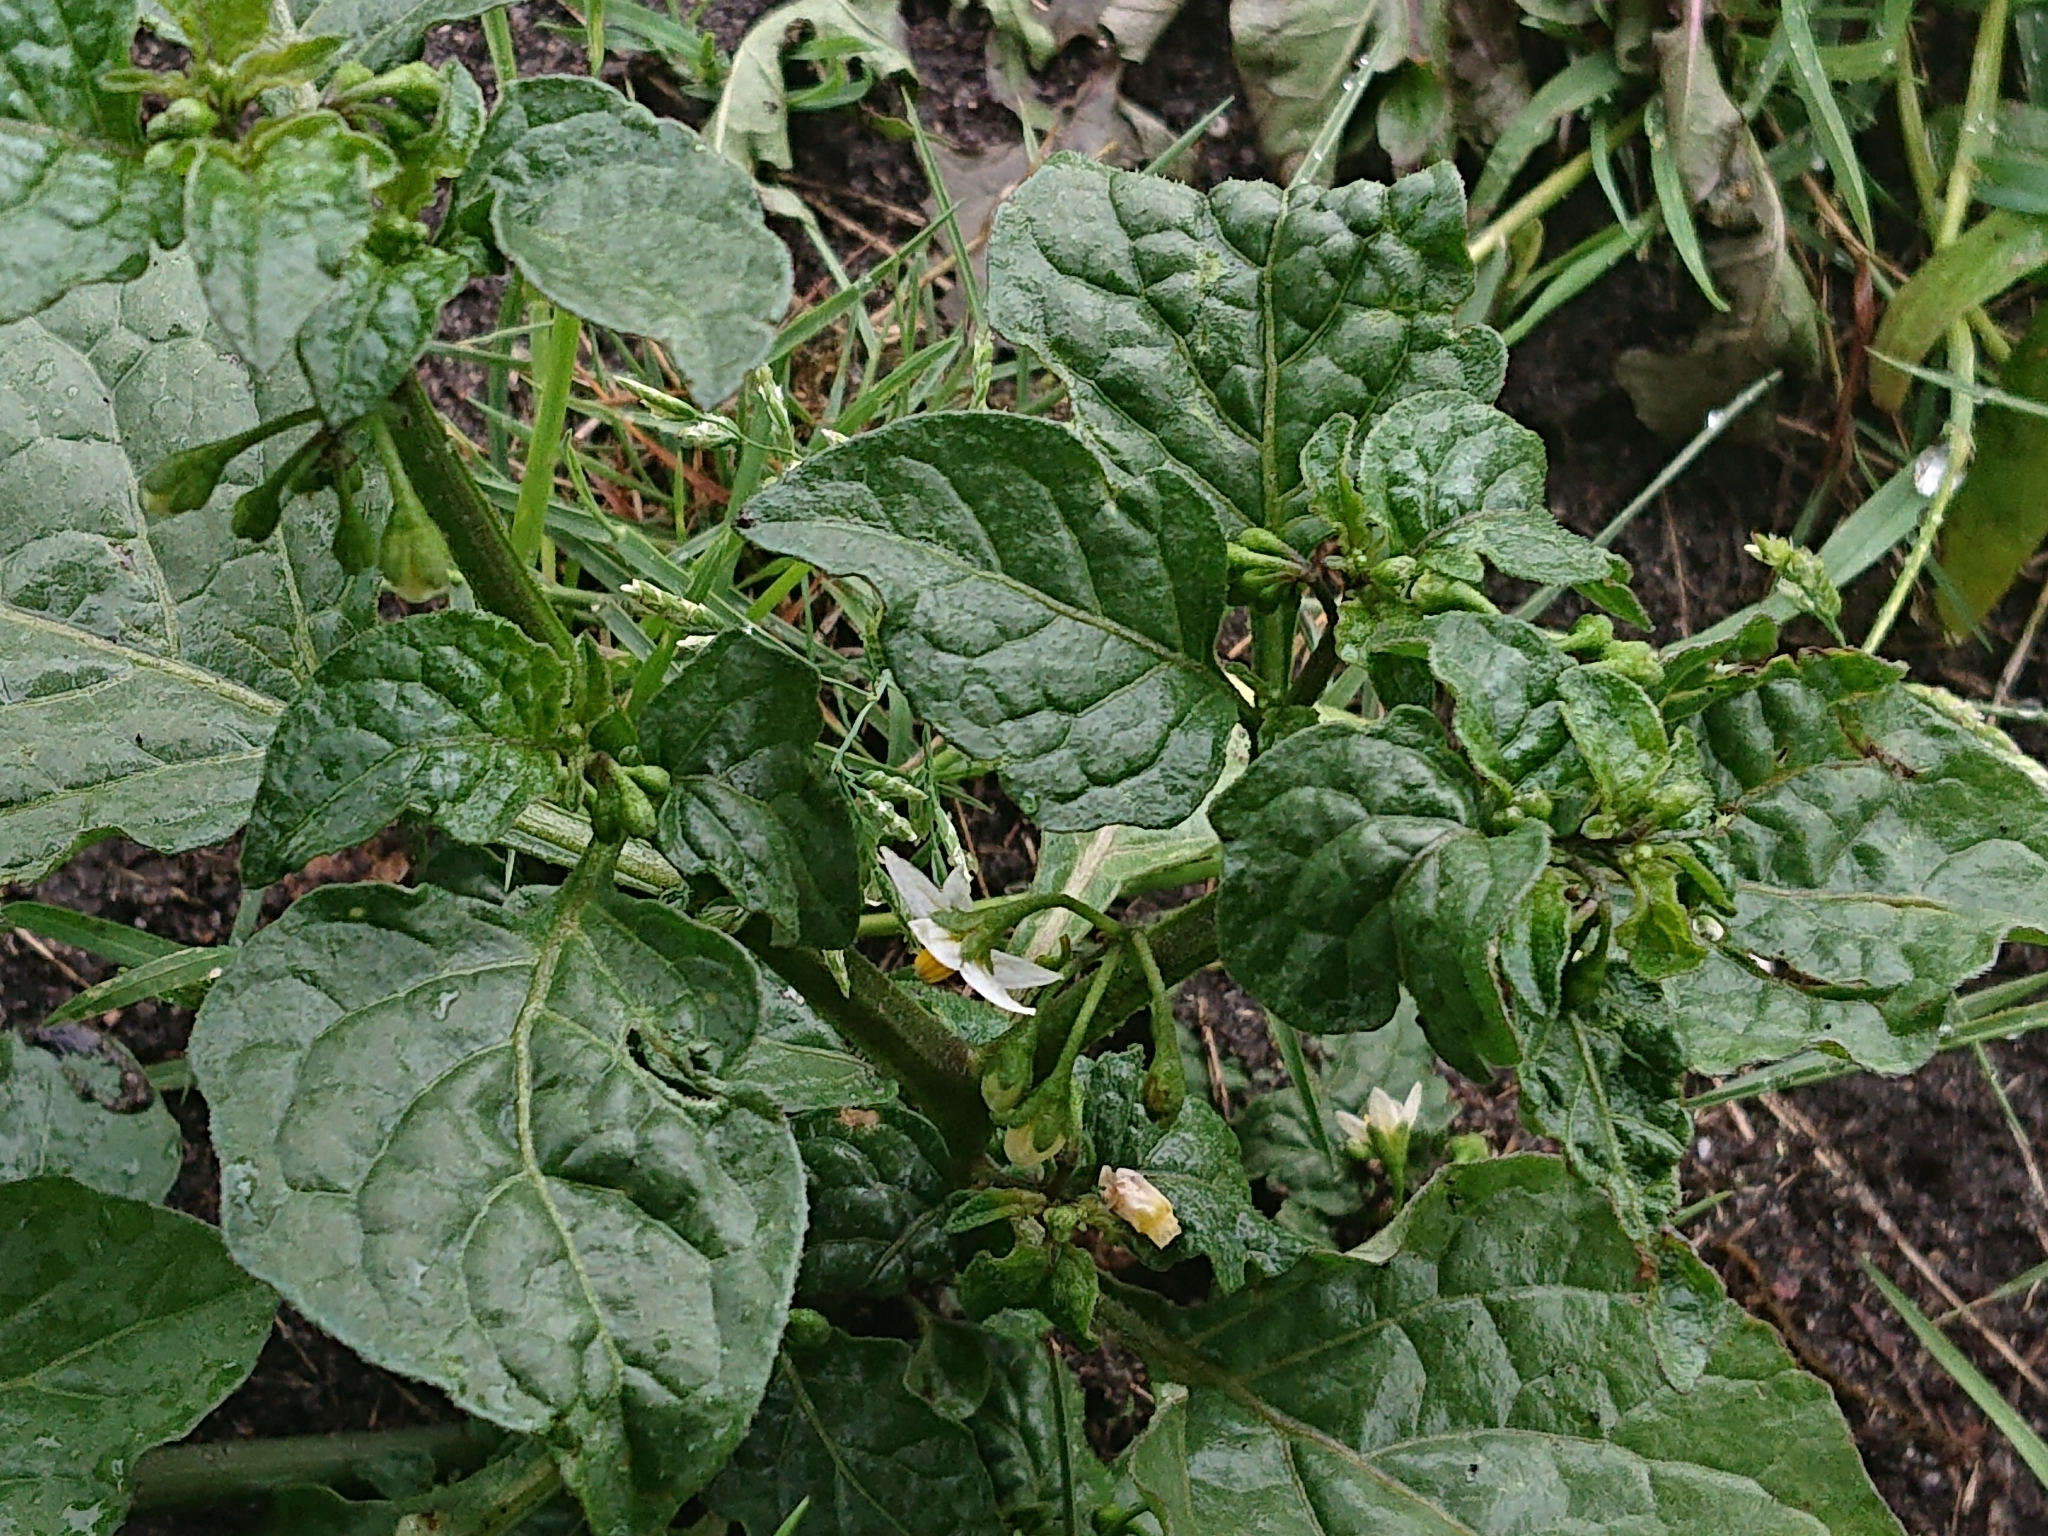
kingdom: Plantae
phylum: Tracheophyta
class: Magnoliopsida
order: Solanales
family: Solanaceae
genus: Solanum
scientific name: Solanum nigrum
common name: Black nightshade
